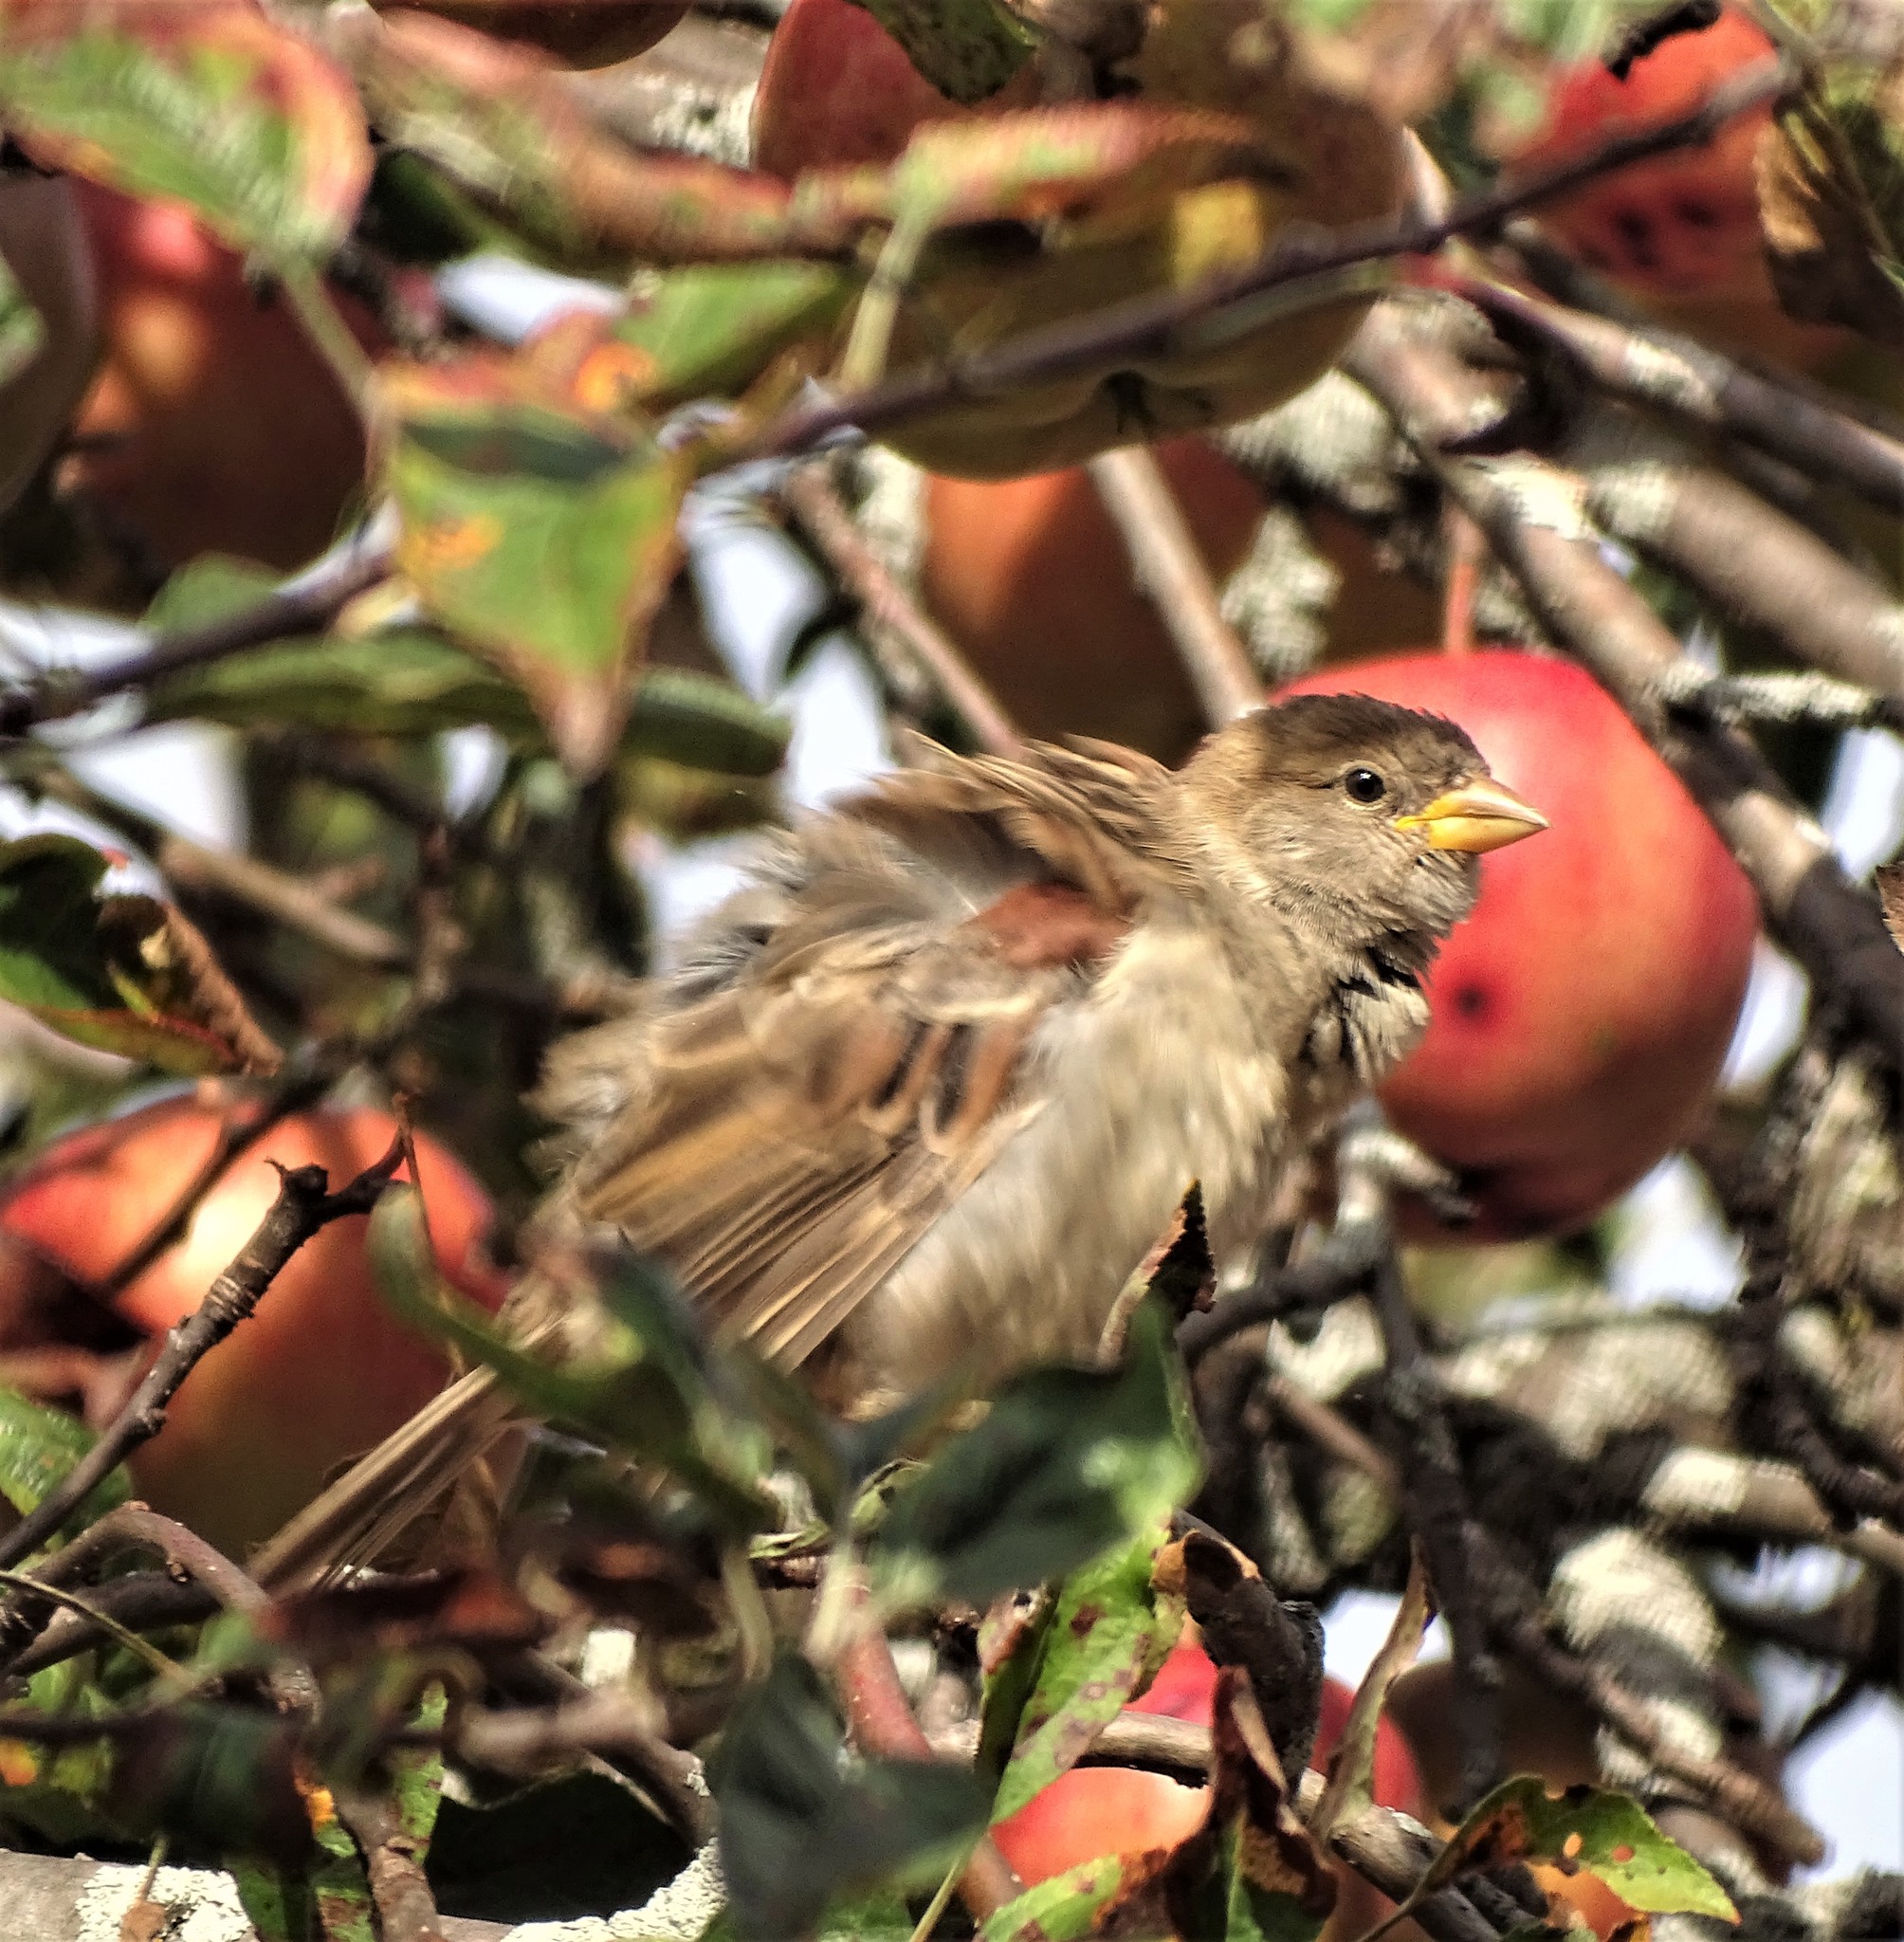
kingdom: Animalia
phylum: Chordata
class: Aves
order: Passeriformes
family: Passeridae
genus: Passer
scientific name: Passer domesticus
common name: House sparrow
